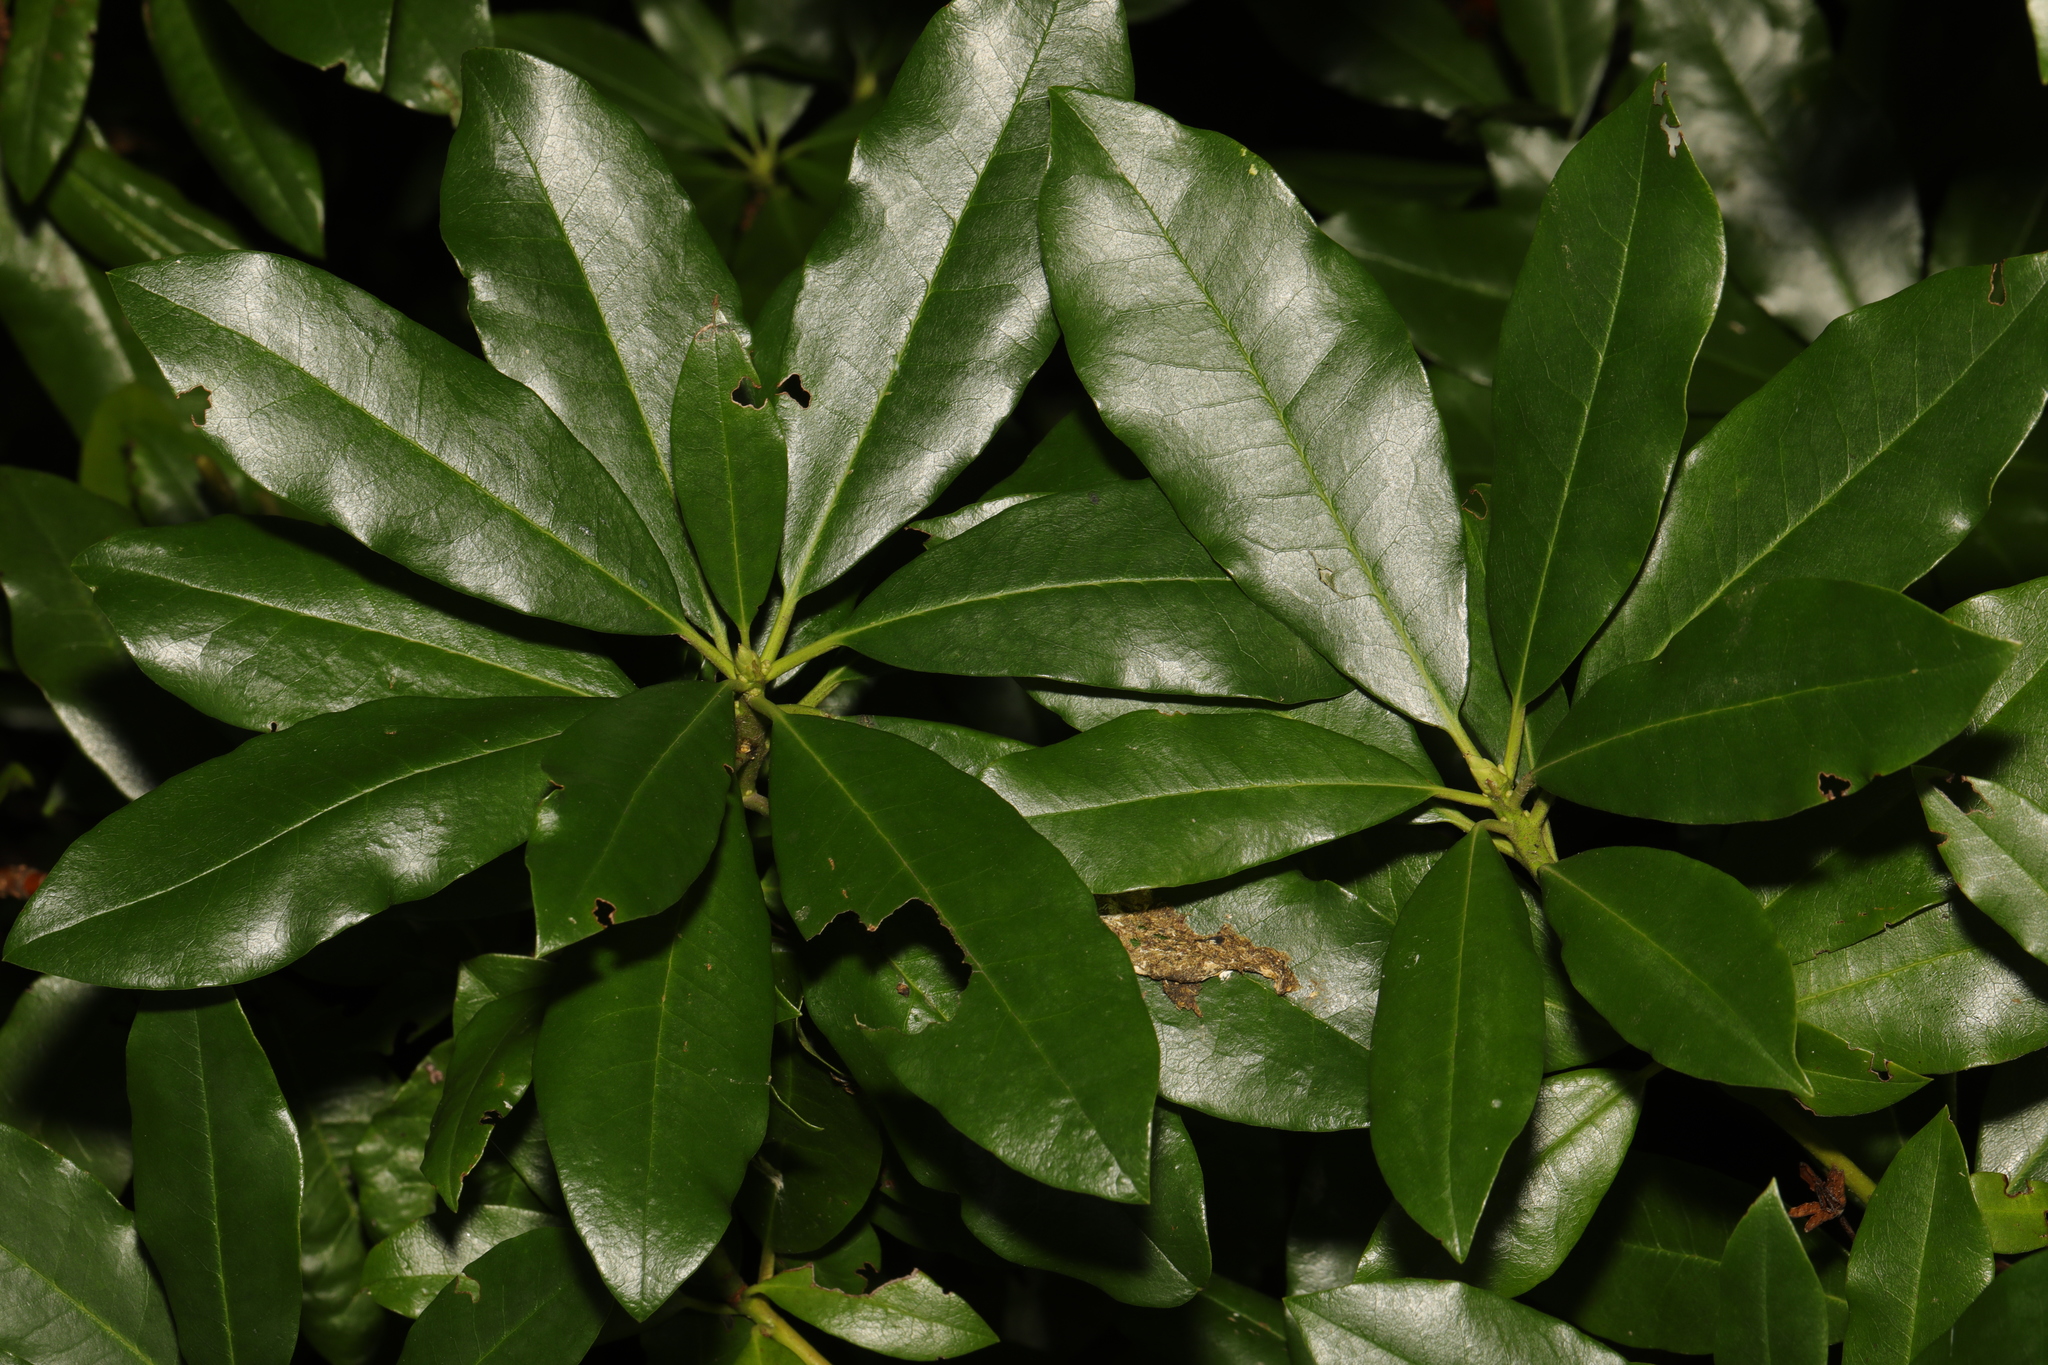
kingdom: Plantae
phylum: Tracheophyta
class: Magnoliopsida
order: Ericales
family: Ericaceae
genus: Rhododendron
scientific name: Rhododendron ponticum
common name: Rhododendron
